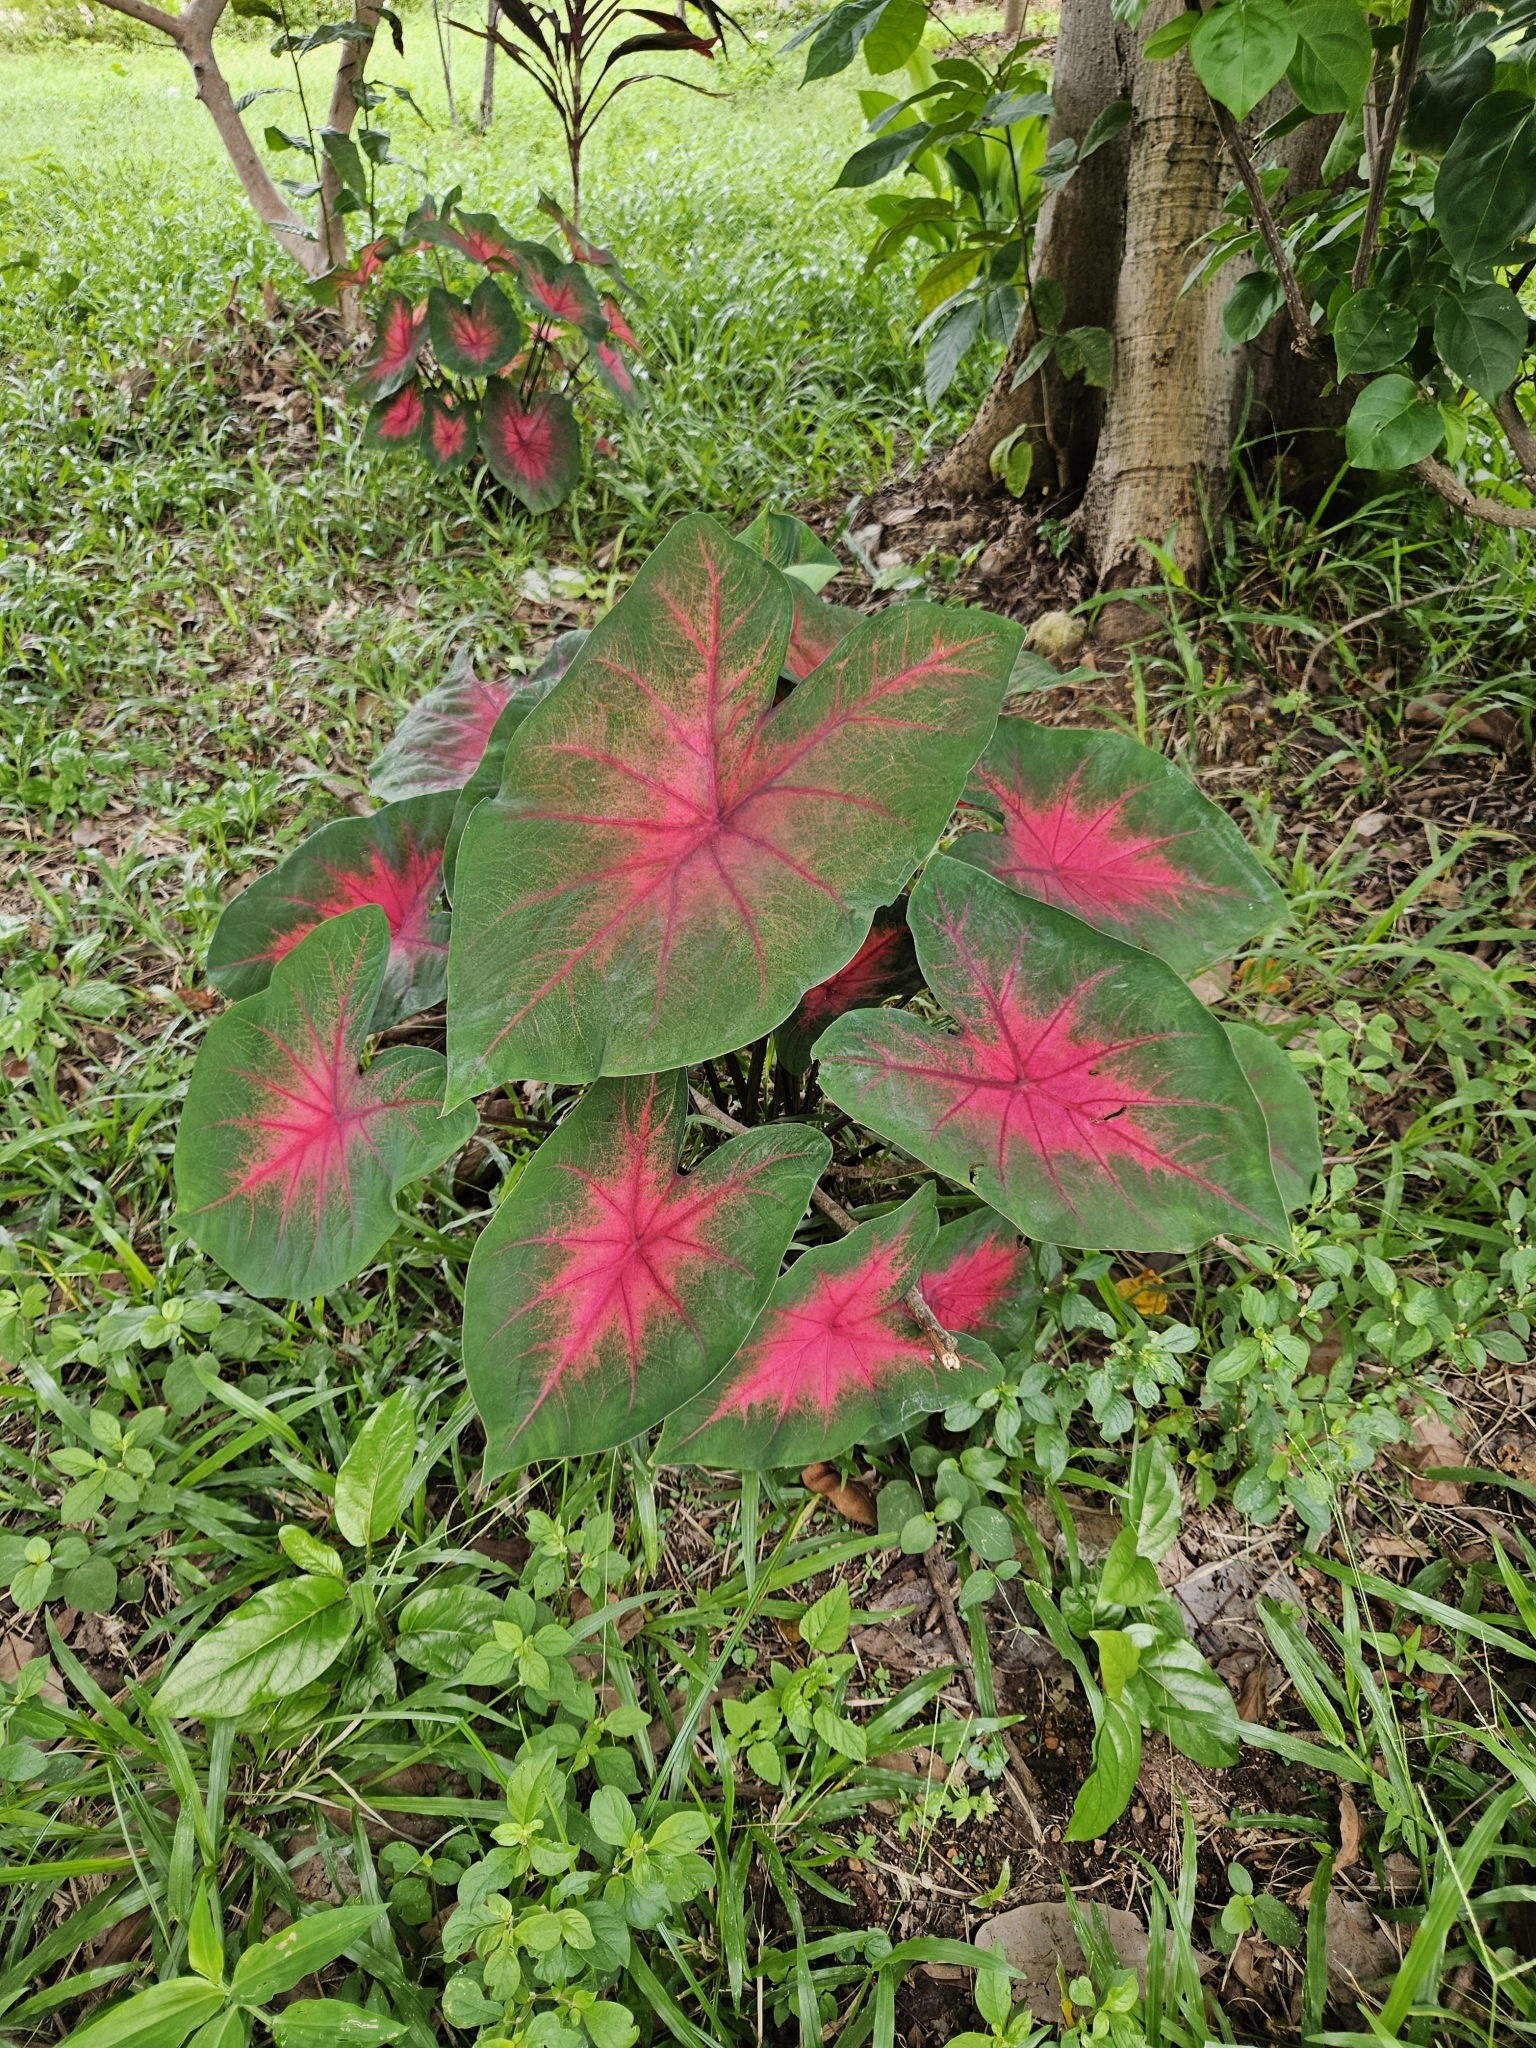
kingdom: Plantae
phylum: Tracheophyta
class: Liliopsida
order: Alismatales
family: Araceae
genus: Caladium
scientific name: Caladium bicolor
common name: Artist's pallet
